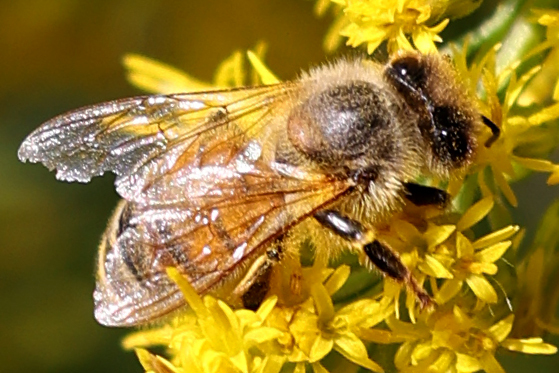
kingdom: Animalia
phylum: Arthropoda
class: Insecta
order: Hymenoptera
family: Apidae
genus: Apis
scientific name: Apis mellifera
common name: Honey bee
